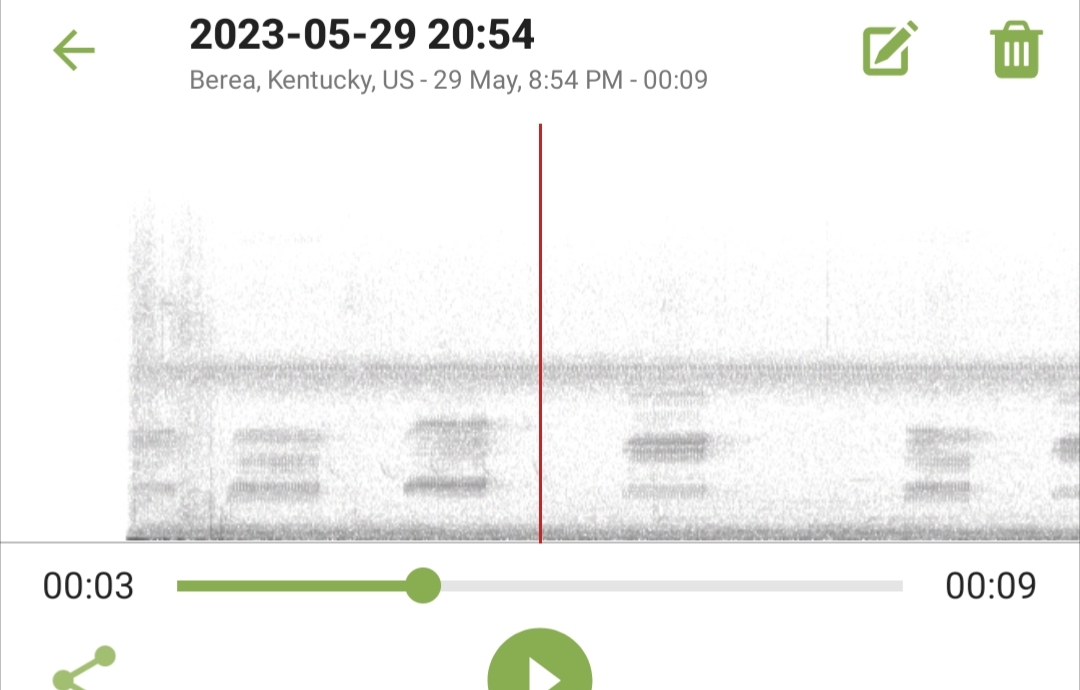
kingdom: Animalia
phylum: Chordata
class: Amphibia
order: Anura
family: Hylidae
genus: Dryophytes
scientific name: Dryophytes chrysoscelis
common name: Cope's gray treefrog
